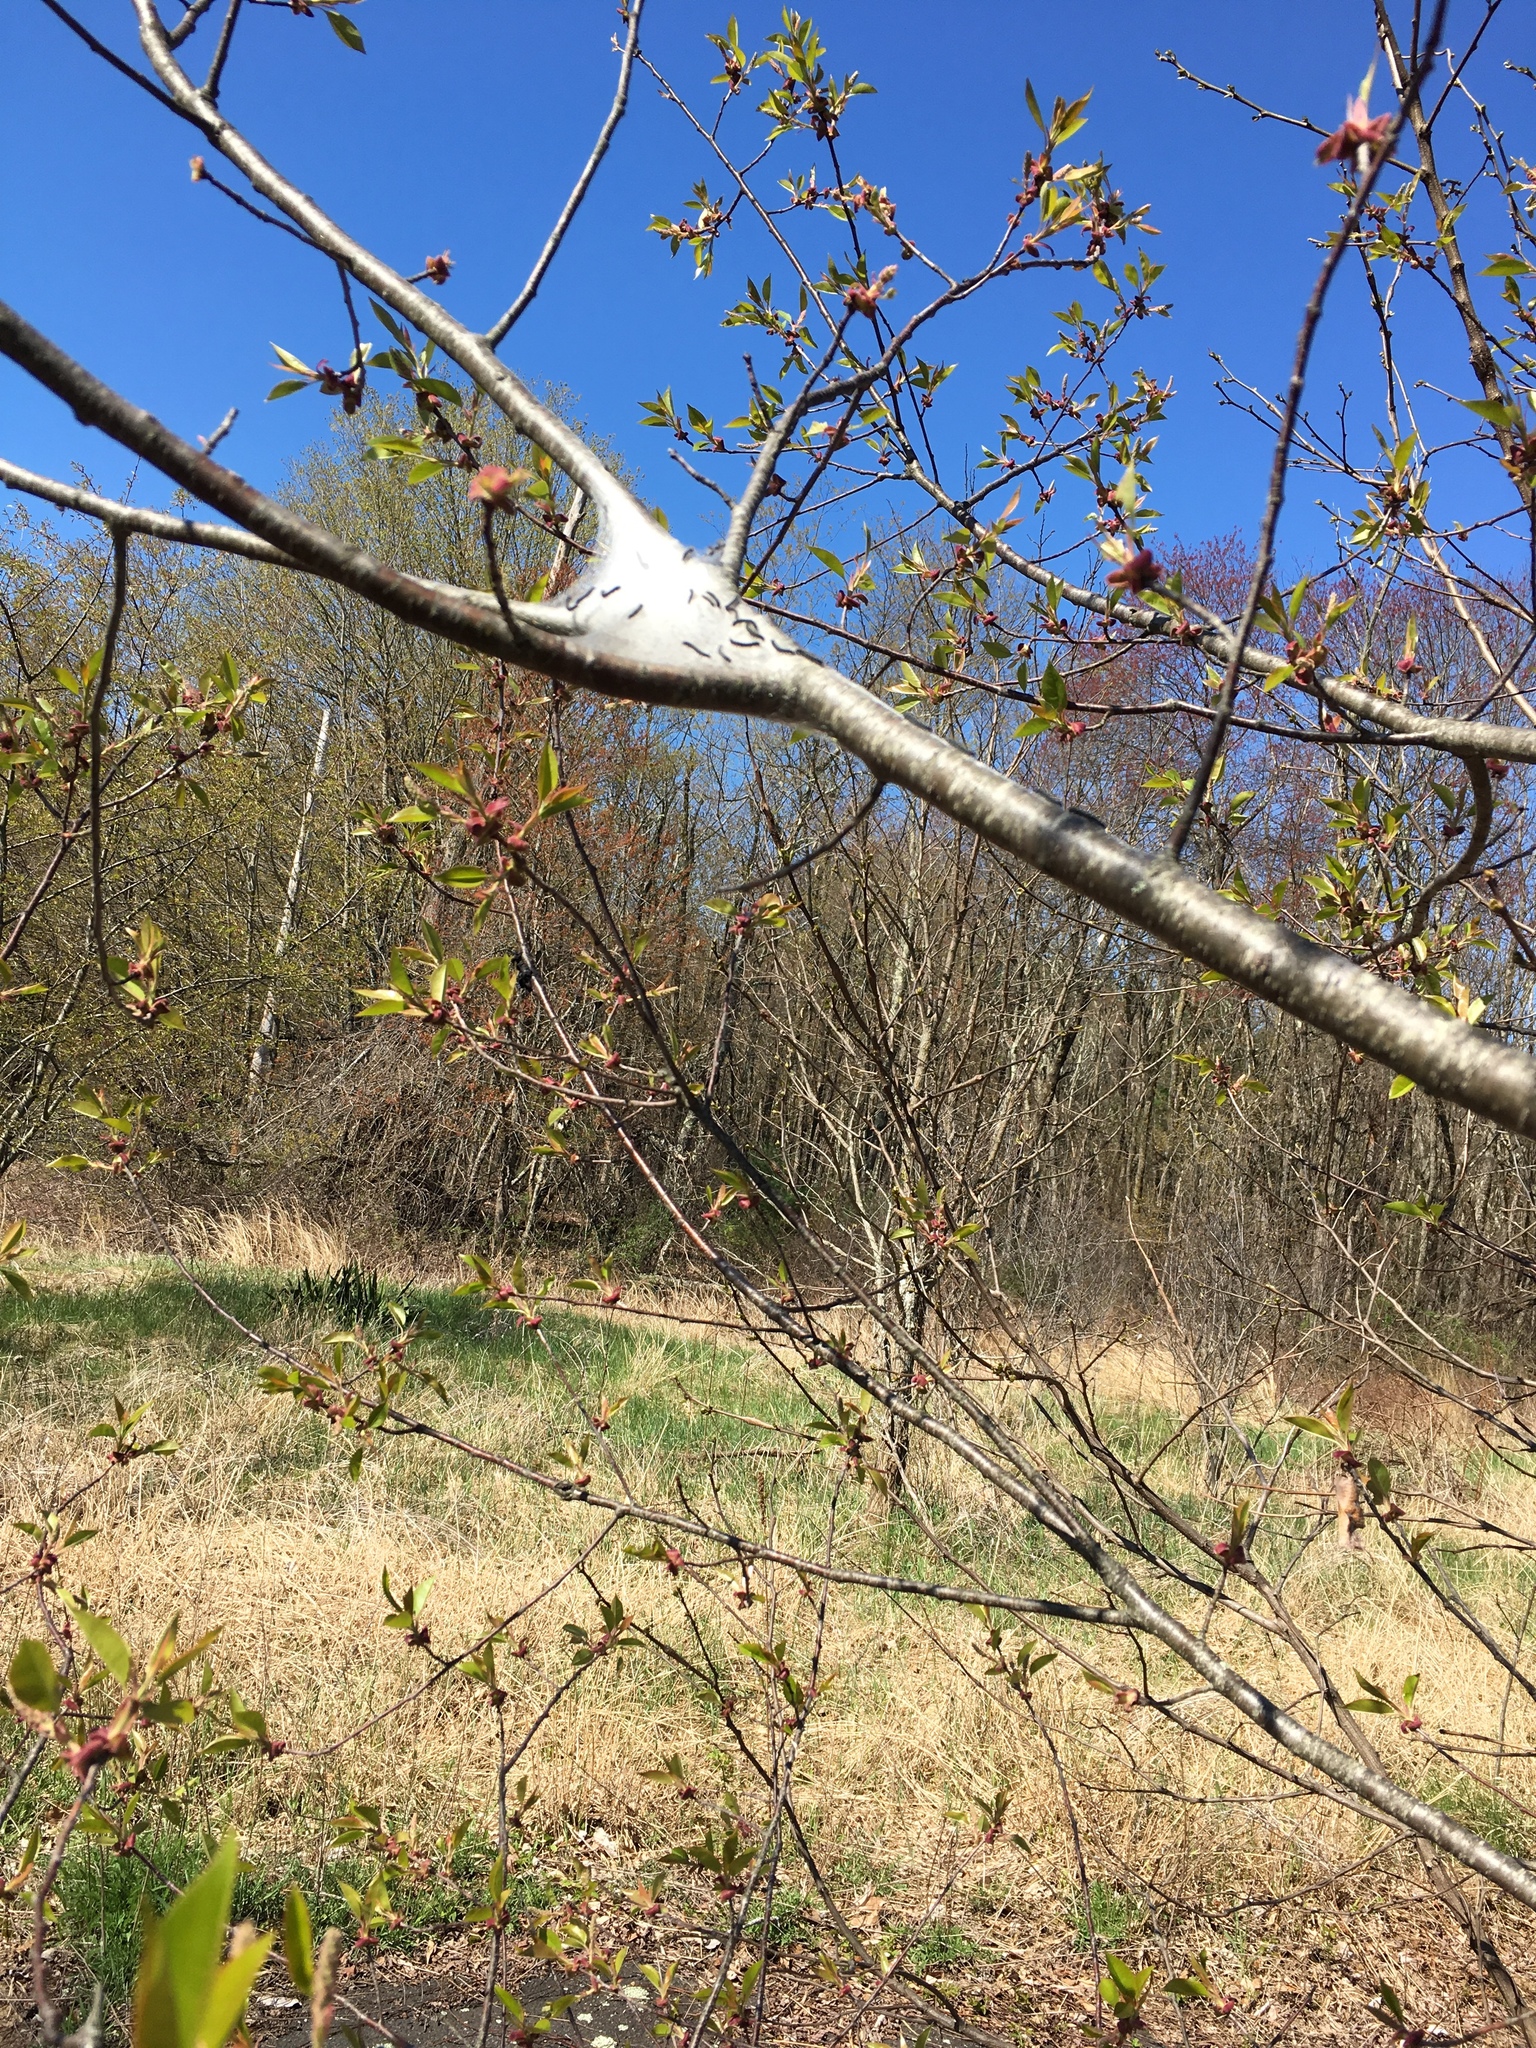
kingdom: Animalia
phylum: Arthropoda
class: Insecta
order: Lepidoptera
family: Lasiocampidae
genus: Malacosoma
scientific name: Malacosoma americana
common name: Eastern tent caterpillar moth
